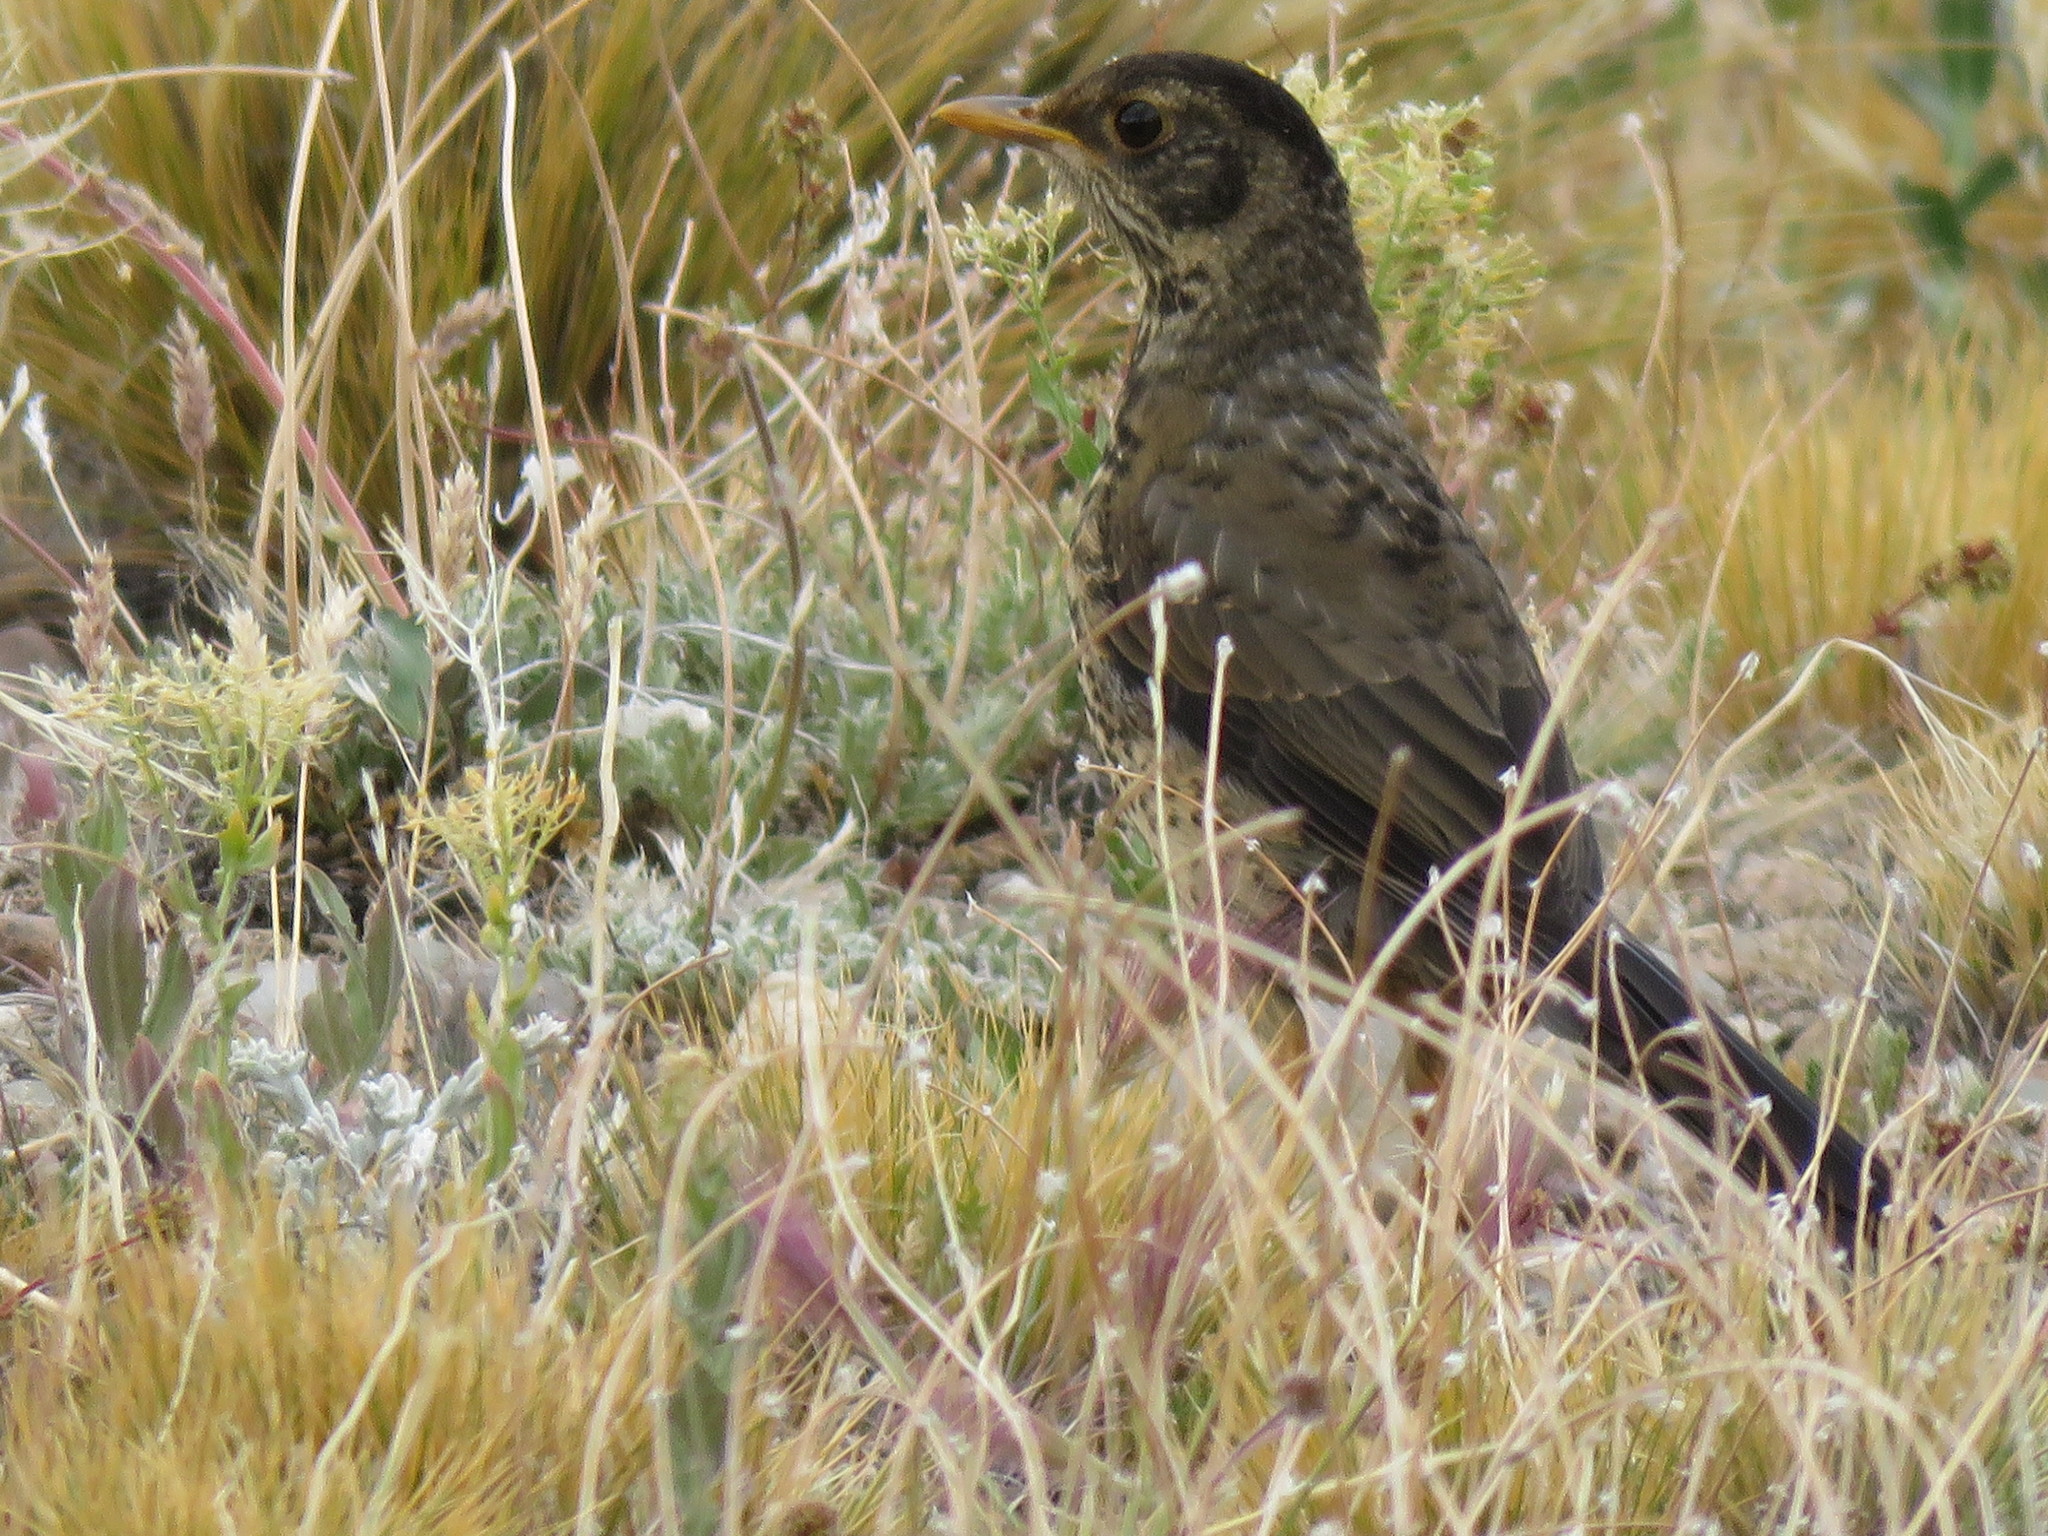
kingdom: Animalia
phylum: Chordata
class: Aves
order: Passeriformes
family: Turdidae
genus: Turdus
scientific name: Turdus falcklandii
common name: Austral thrush
